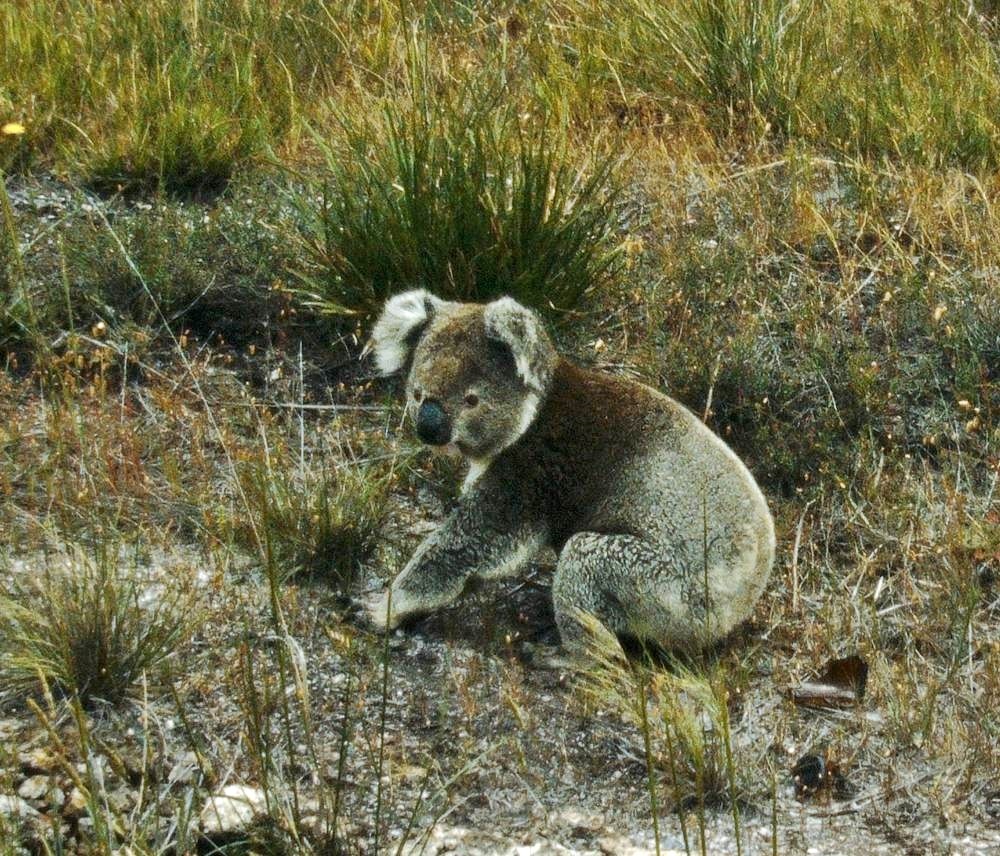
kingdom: Animalia
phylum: Chordata
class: Mammalia
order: Diprotodontia
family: Phascolarctidae
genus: Phascolarctos
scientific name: Phascolarctos cinereus
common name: Koala
